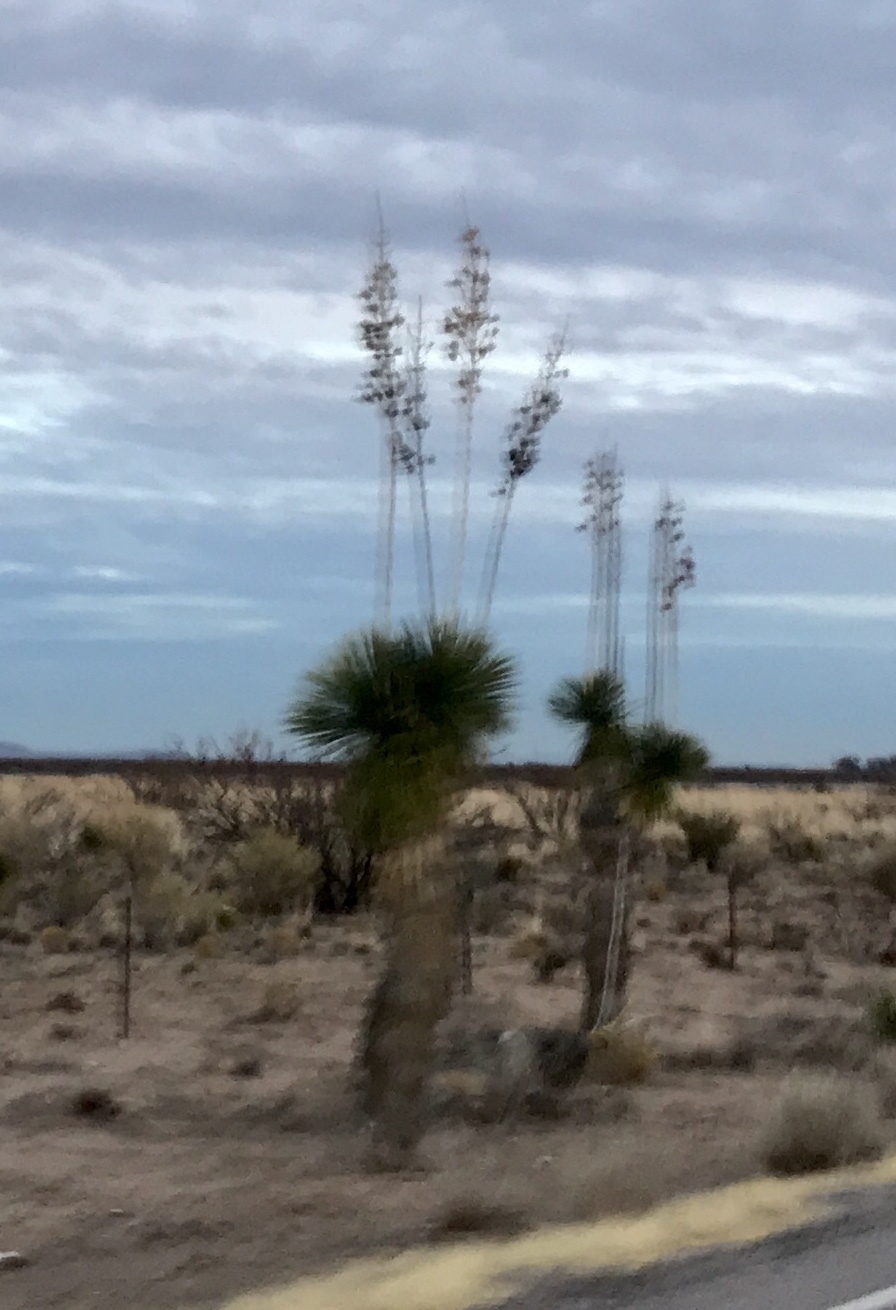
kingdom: Plantae
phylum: Tracheophyta
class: Liliopsida
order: Asparagales
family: Asparagaceae
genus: Yucca
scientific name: Yucca elata
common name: Palmella
